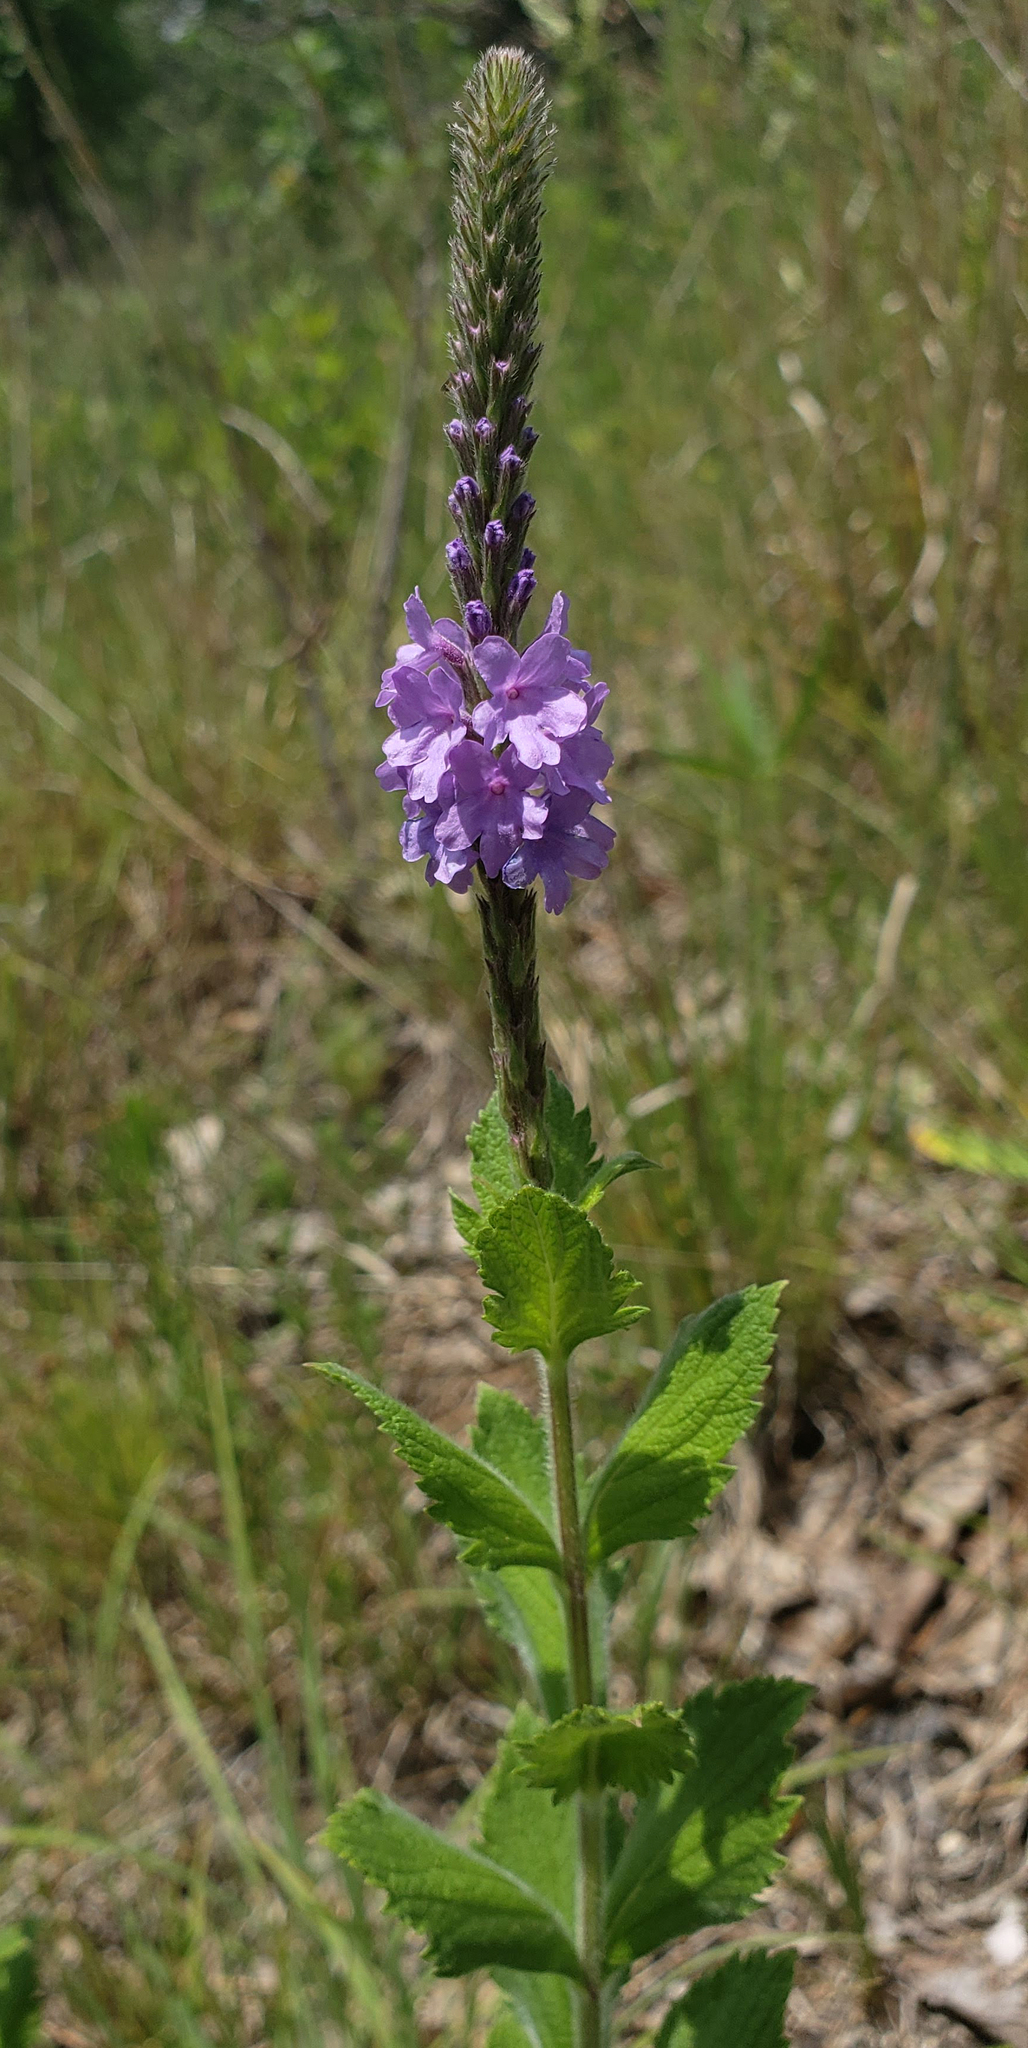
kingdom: Plantae
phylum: Tracheophyta
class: Magnoliopsida
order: Lamiales
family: Verbenaceae
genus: Verbena
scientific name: Verbena stricta
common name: Hoary vervain
